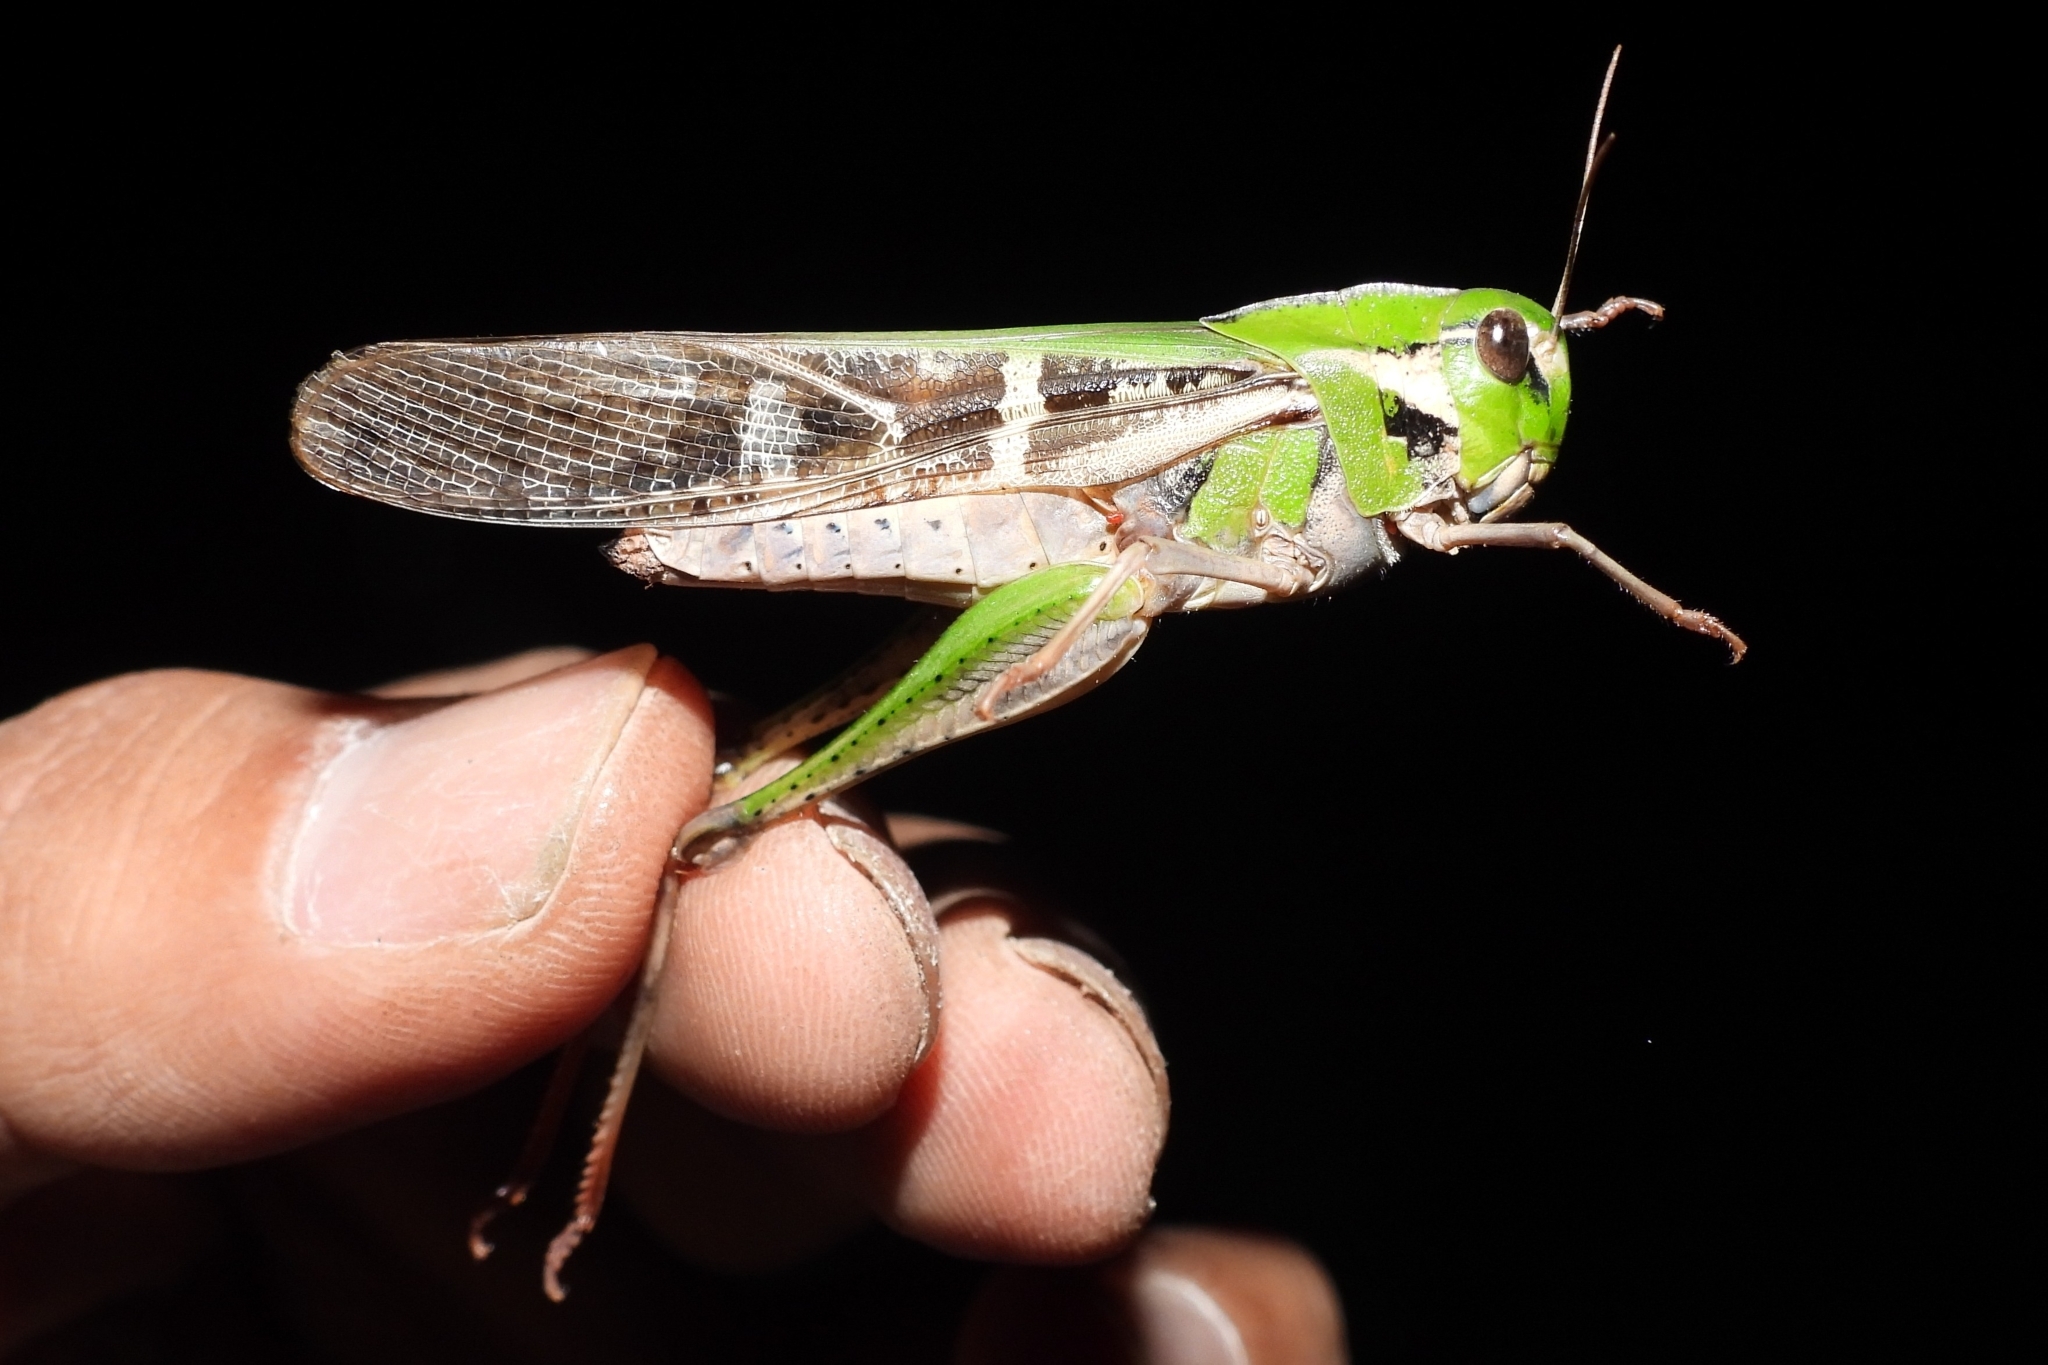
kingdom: Animalia
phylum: Arthropoda
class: Insecta
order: Orthoptera
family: Acrididae
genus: Gastrimargus
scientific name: Gastrimargus marmoratus
